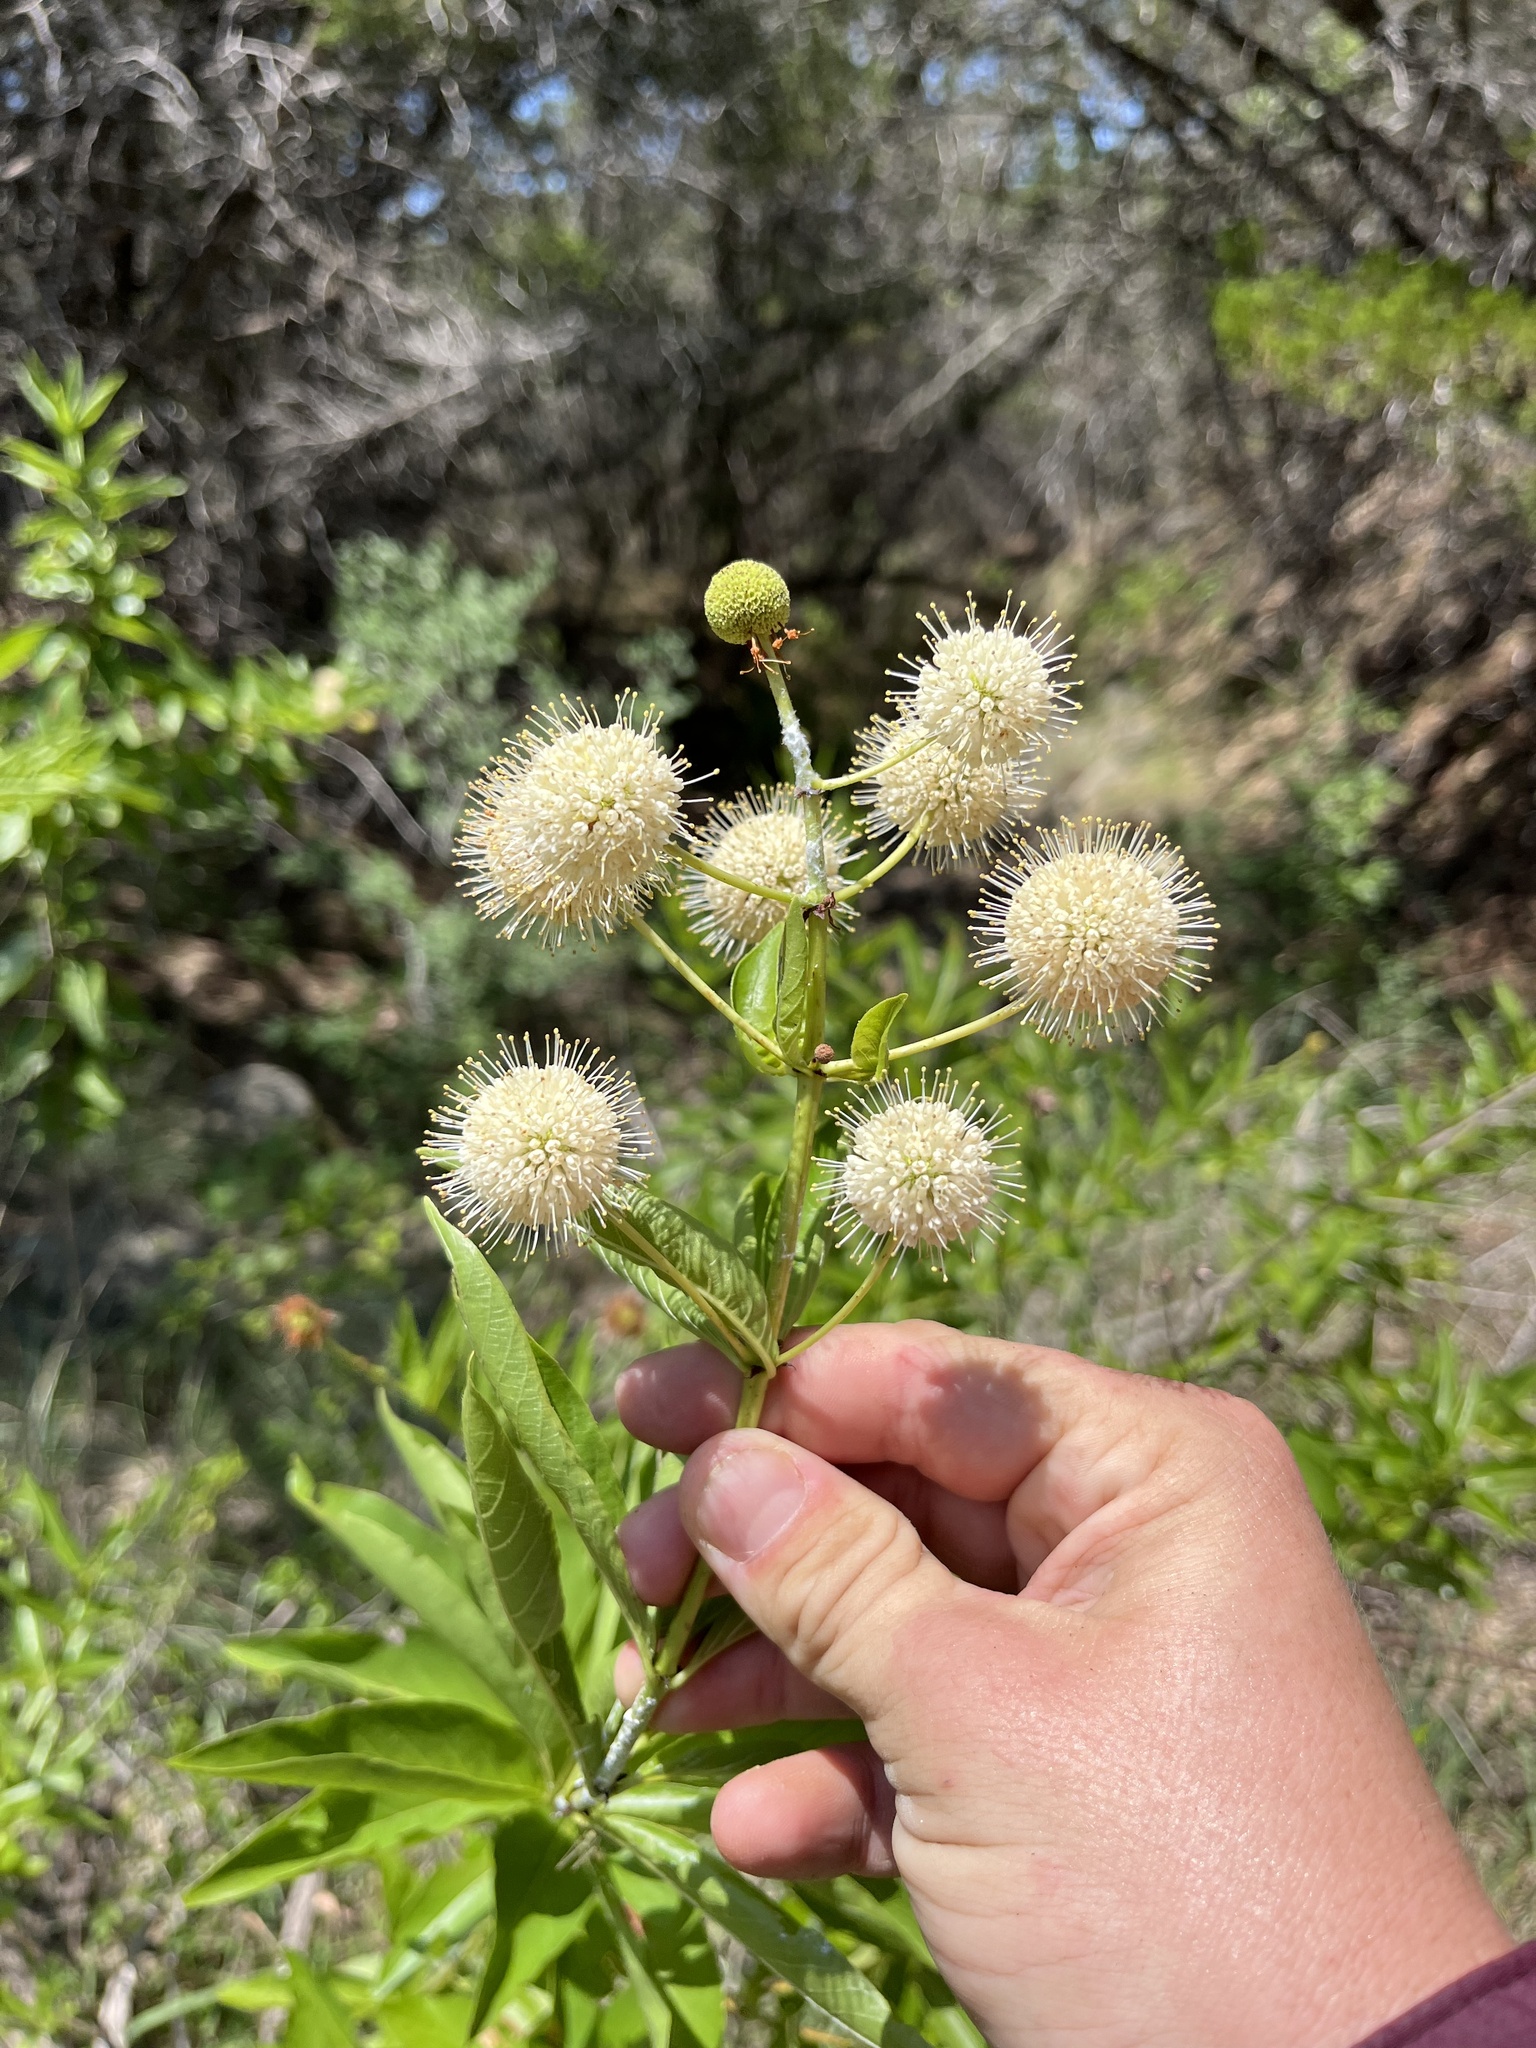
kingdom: Plantae
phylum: Tracheophyta
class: Magnoliopsida
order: Gentianales
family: Rubiaceae
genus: Cephalanthus
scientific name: Cephalanthus occidentalis
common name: Button-willow
